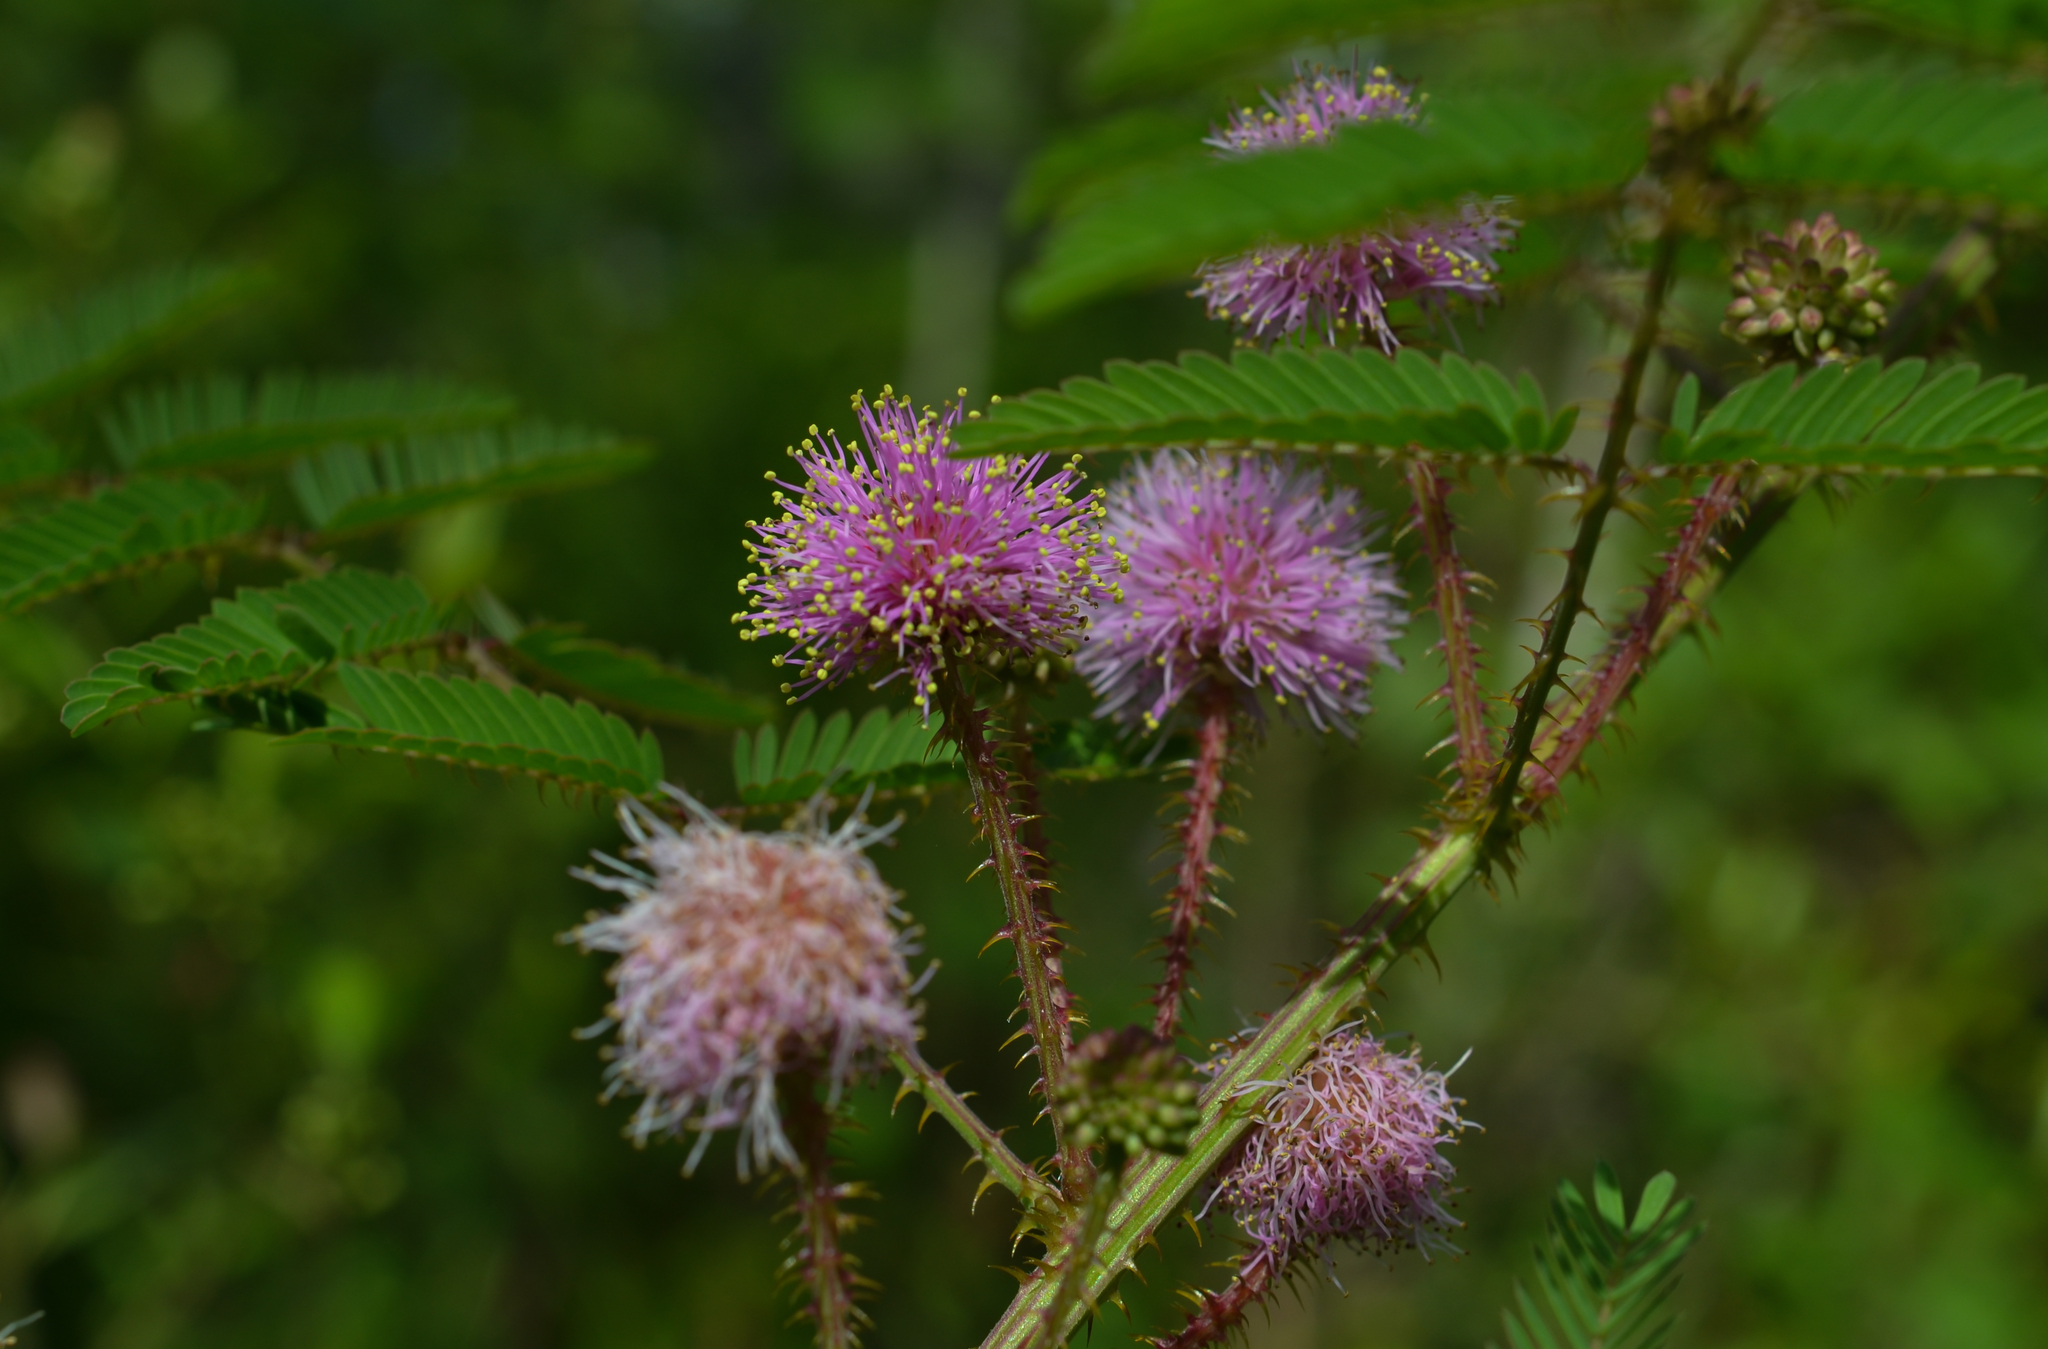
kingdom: Plantae
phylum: Tracheophyta
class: Magnoliopsida
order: Fabales
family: Fabaceae
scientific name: Fabaceae
